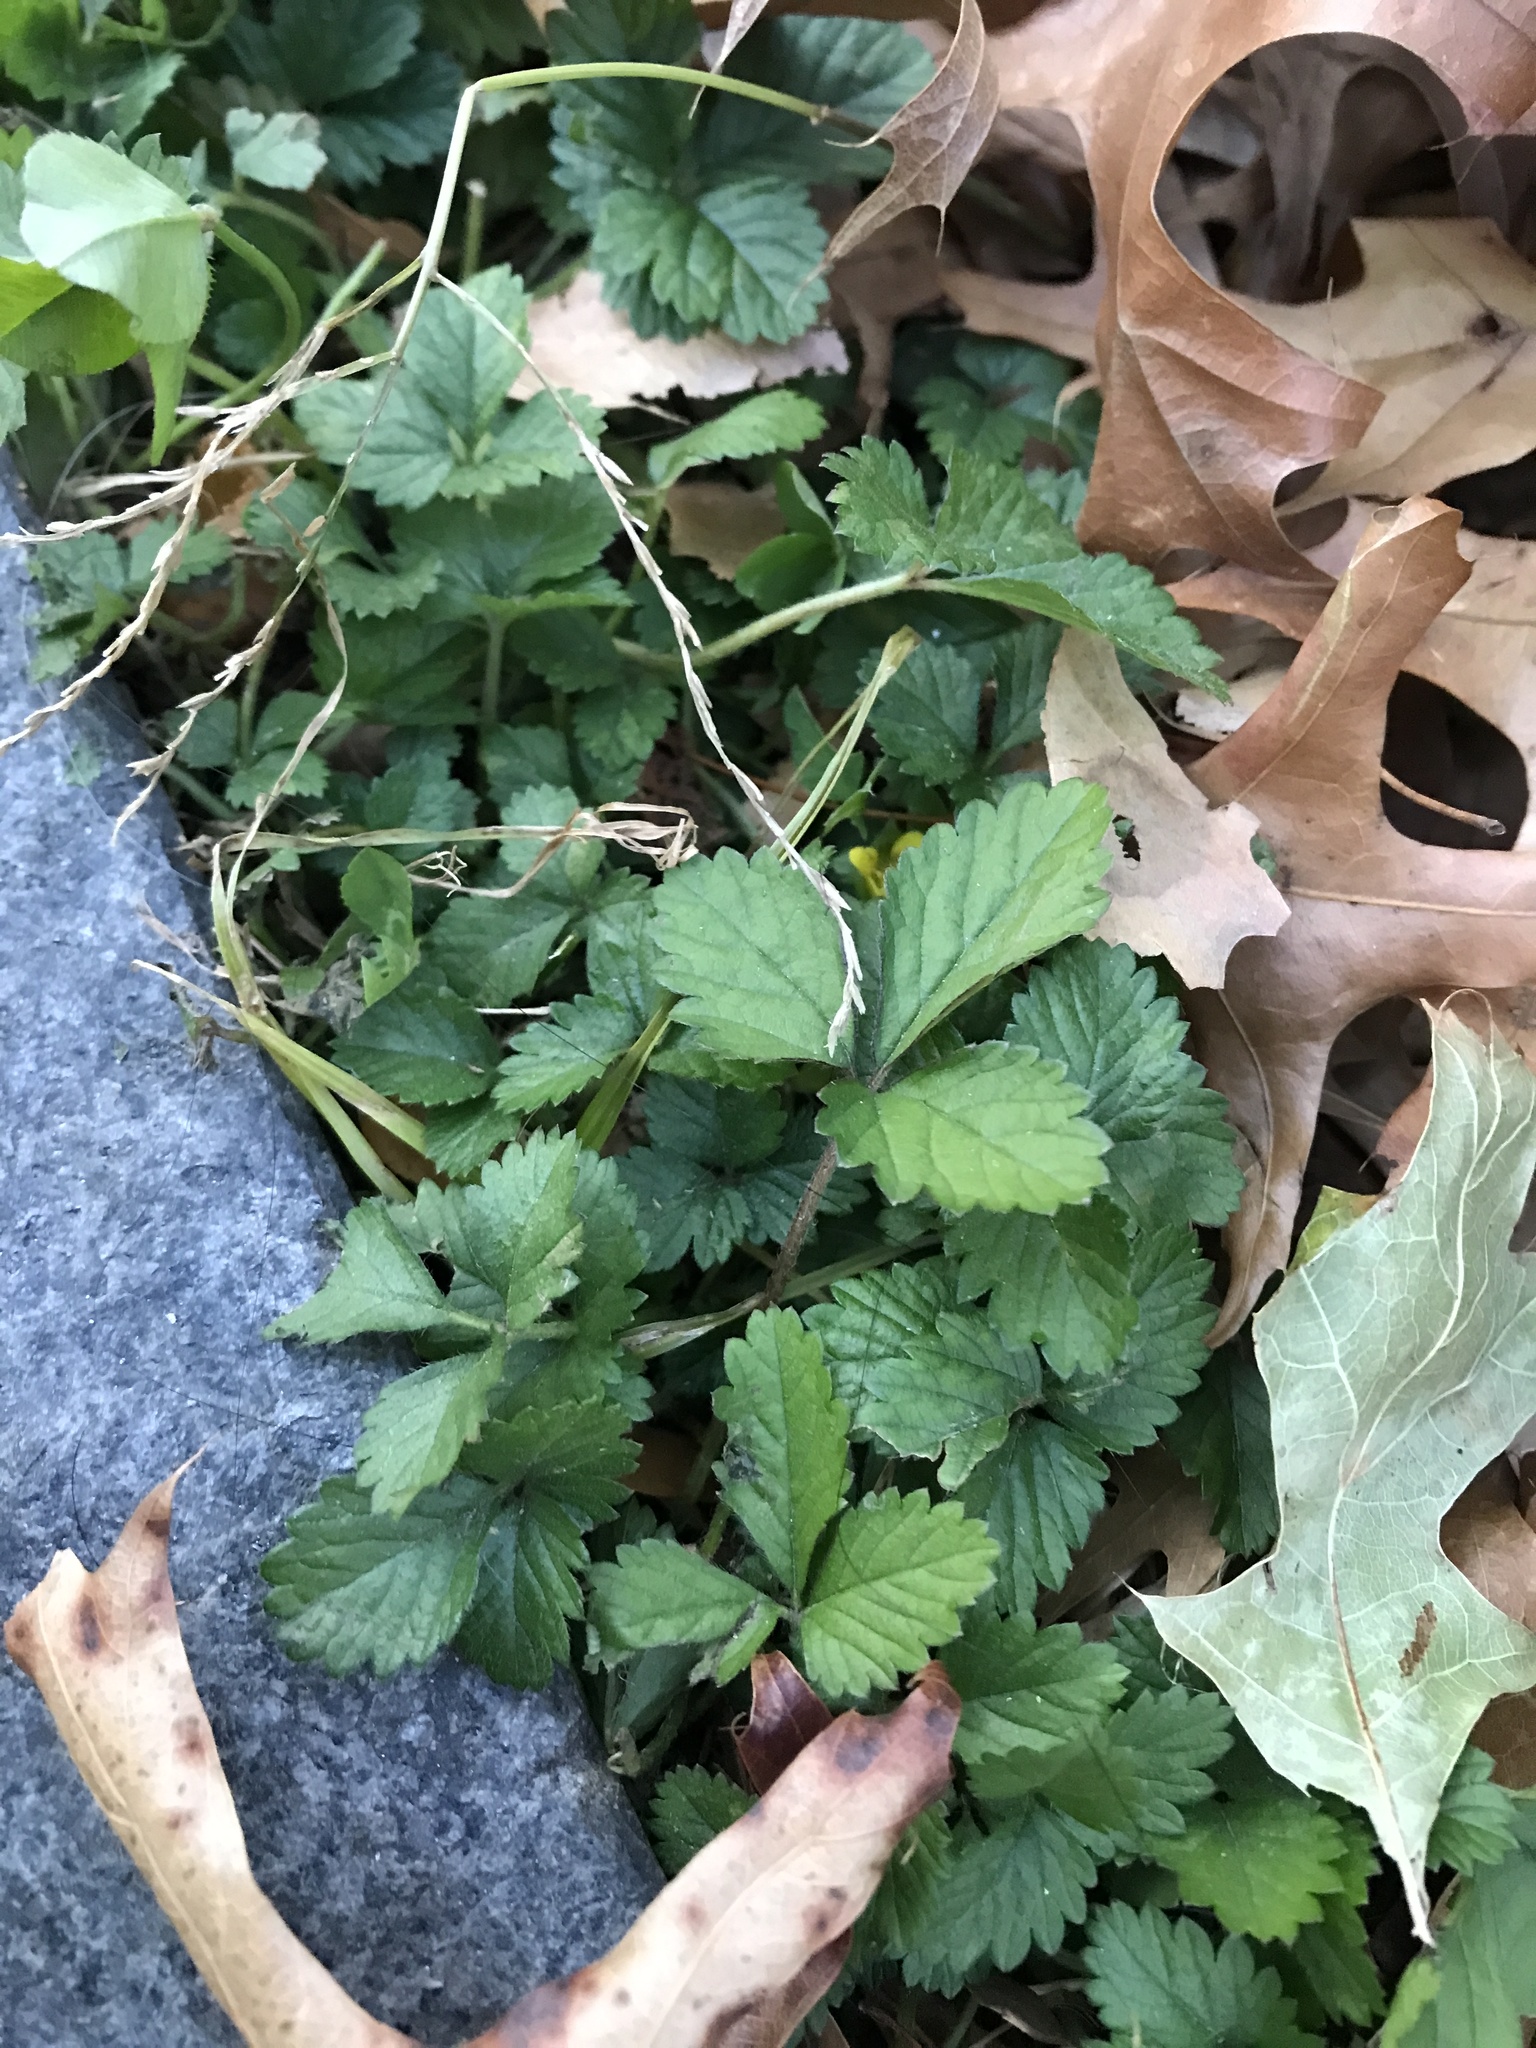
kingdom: Plantae
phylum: Tracheophyta
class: Magnoliopsida
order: Rosales
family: Rosaceae
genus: Potentilla
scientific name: Potentilla indica
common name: Yellow-flowered strawberry
